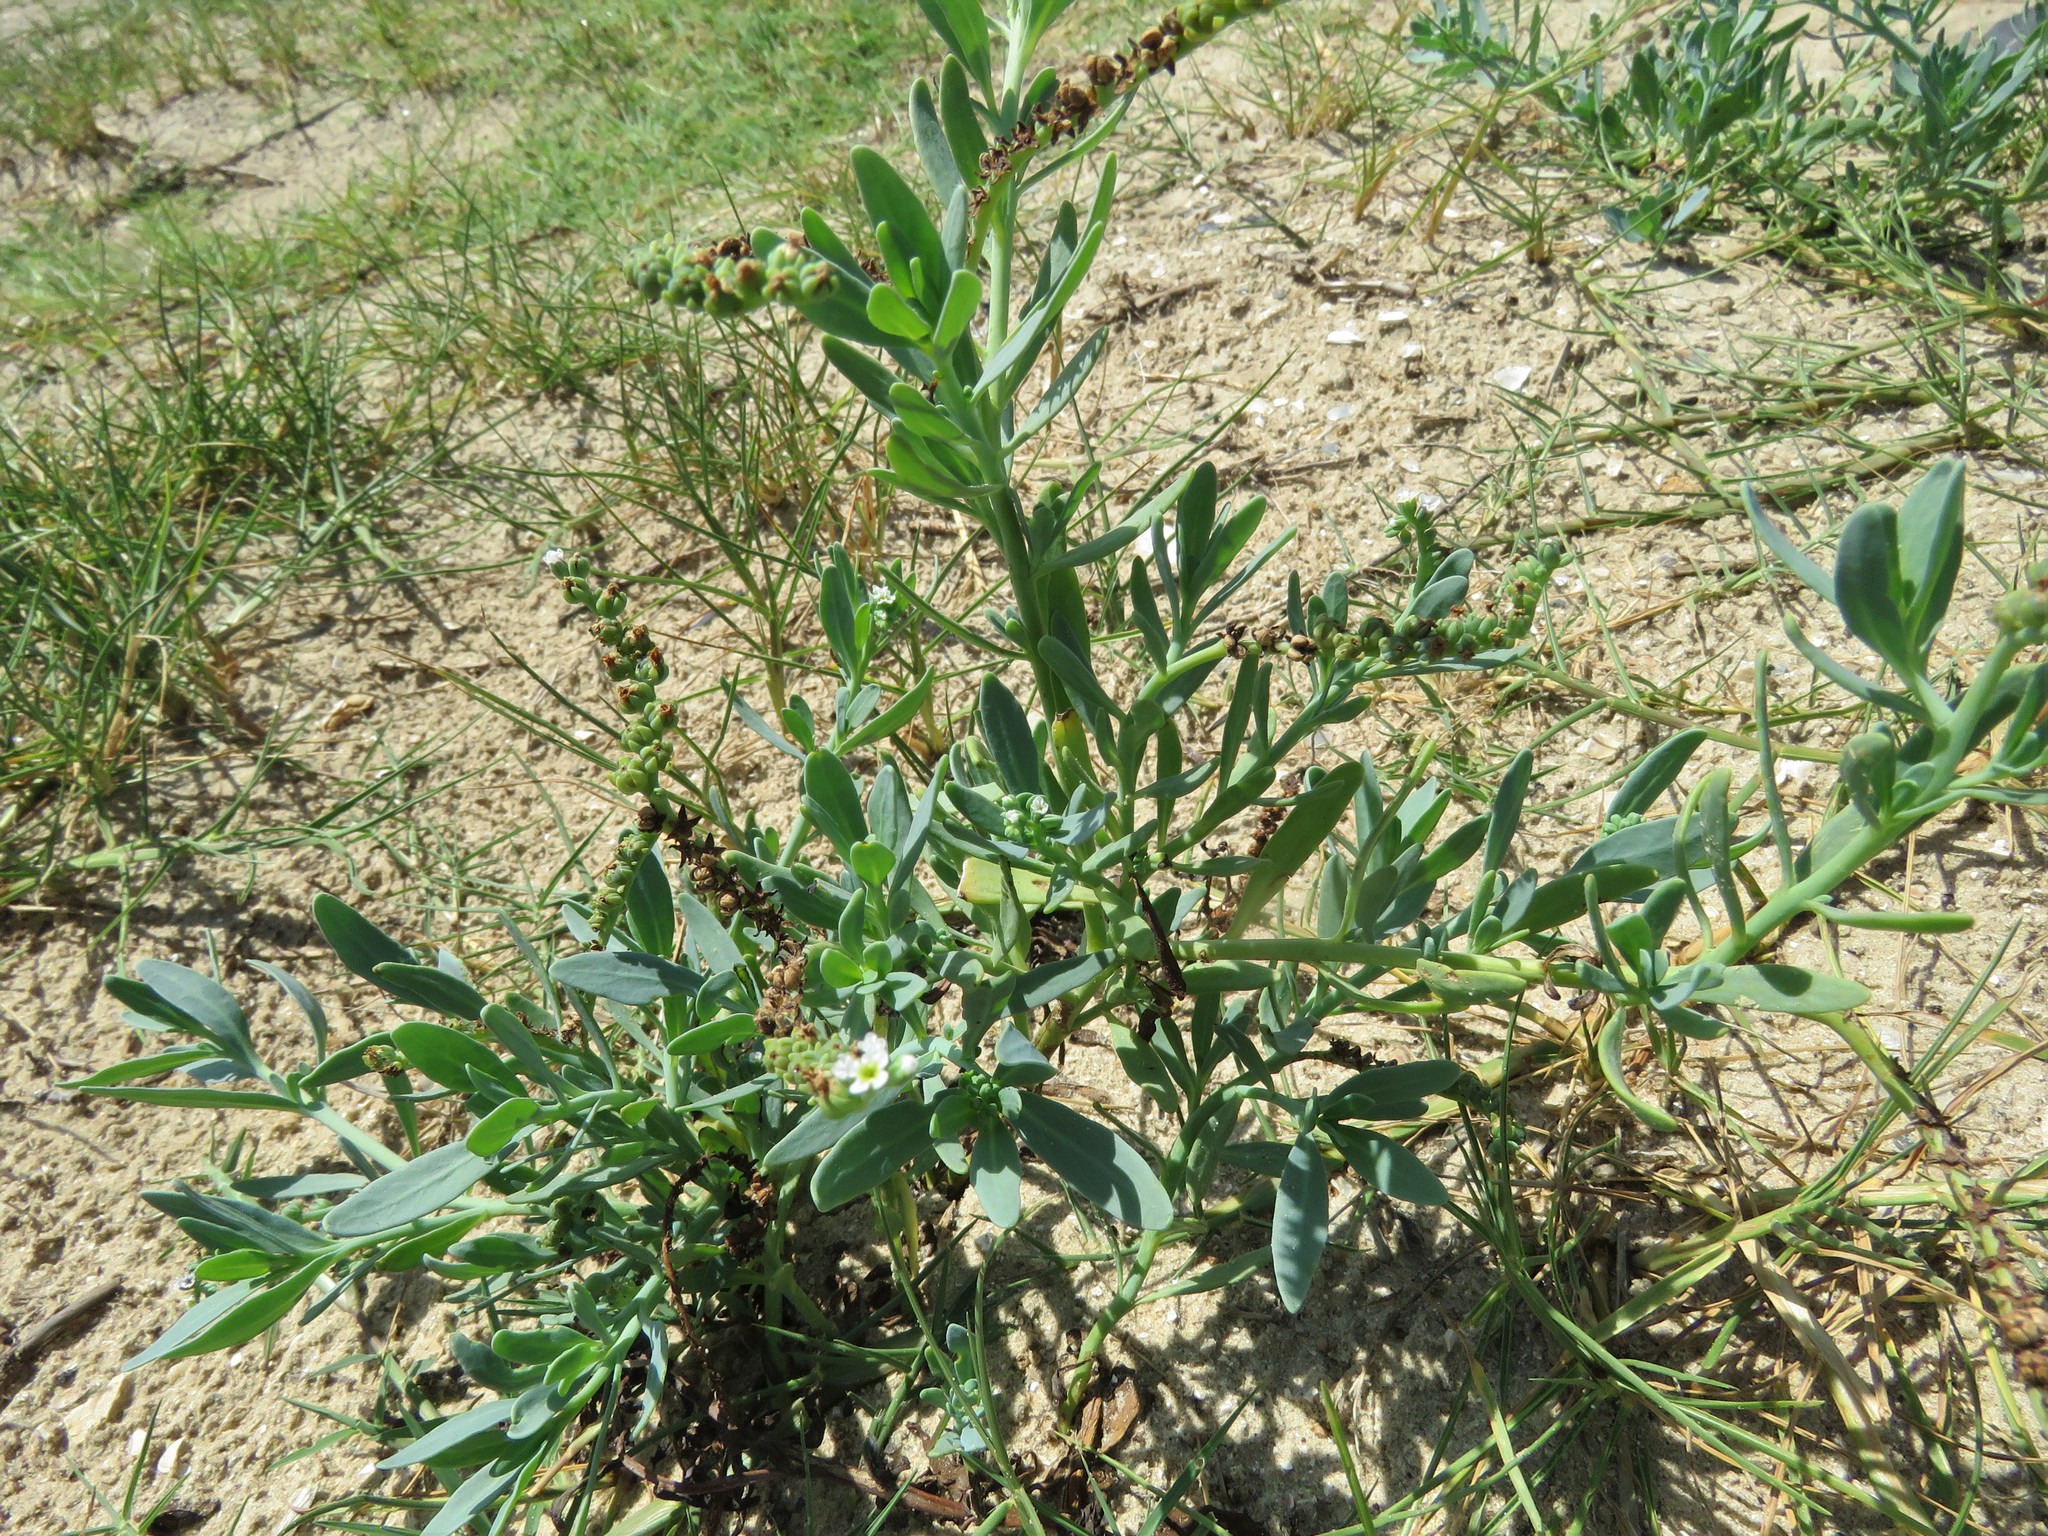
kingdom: Plantae
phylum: Tracheophyta
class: Magnoliopsida
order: Boraginales
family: Heliotropiaceae
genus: Heliotropium
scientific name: Heliotropium curassavicum
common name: Seaside heliotrope
